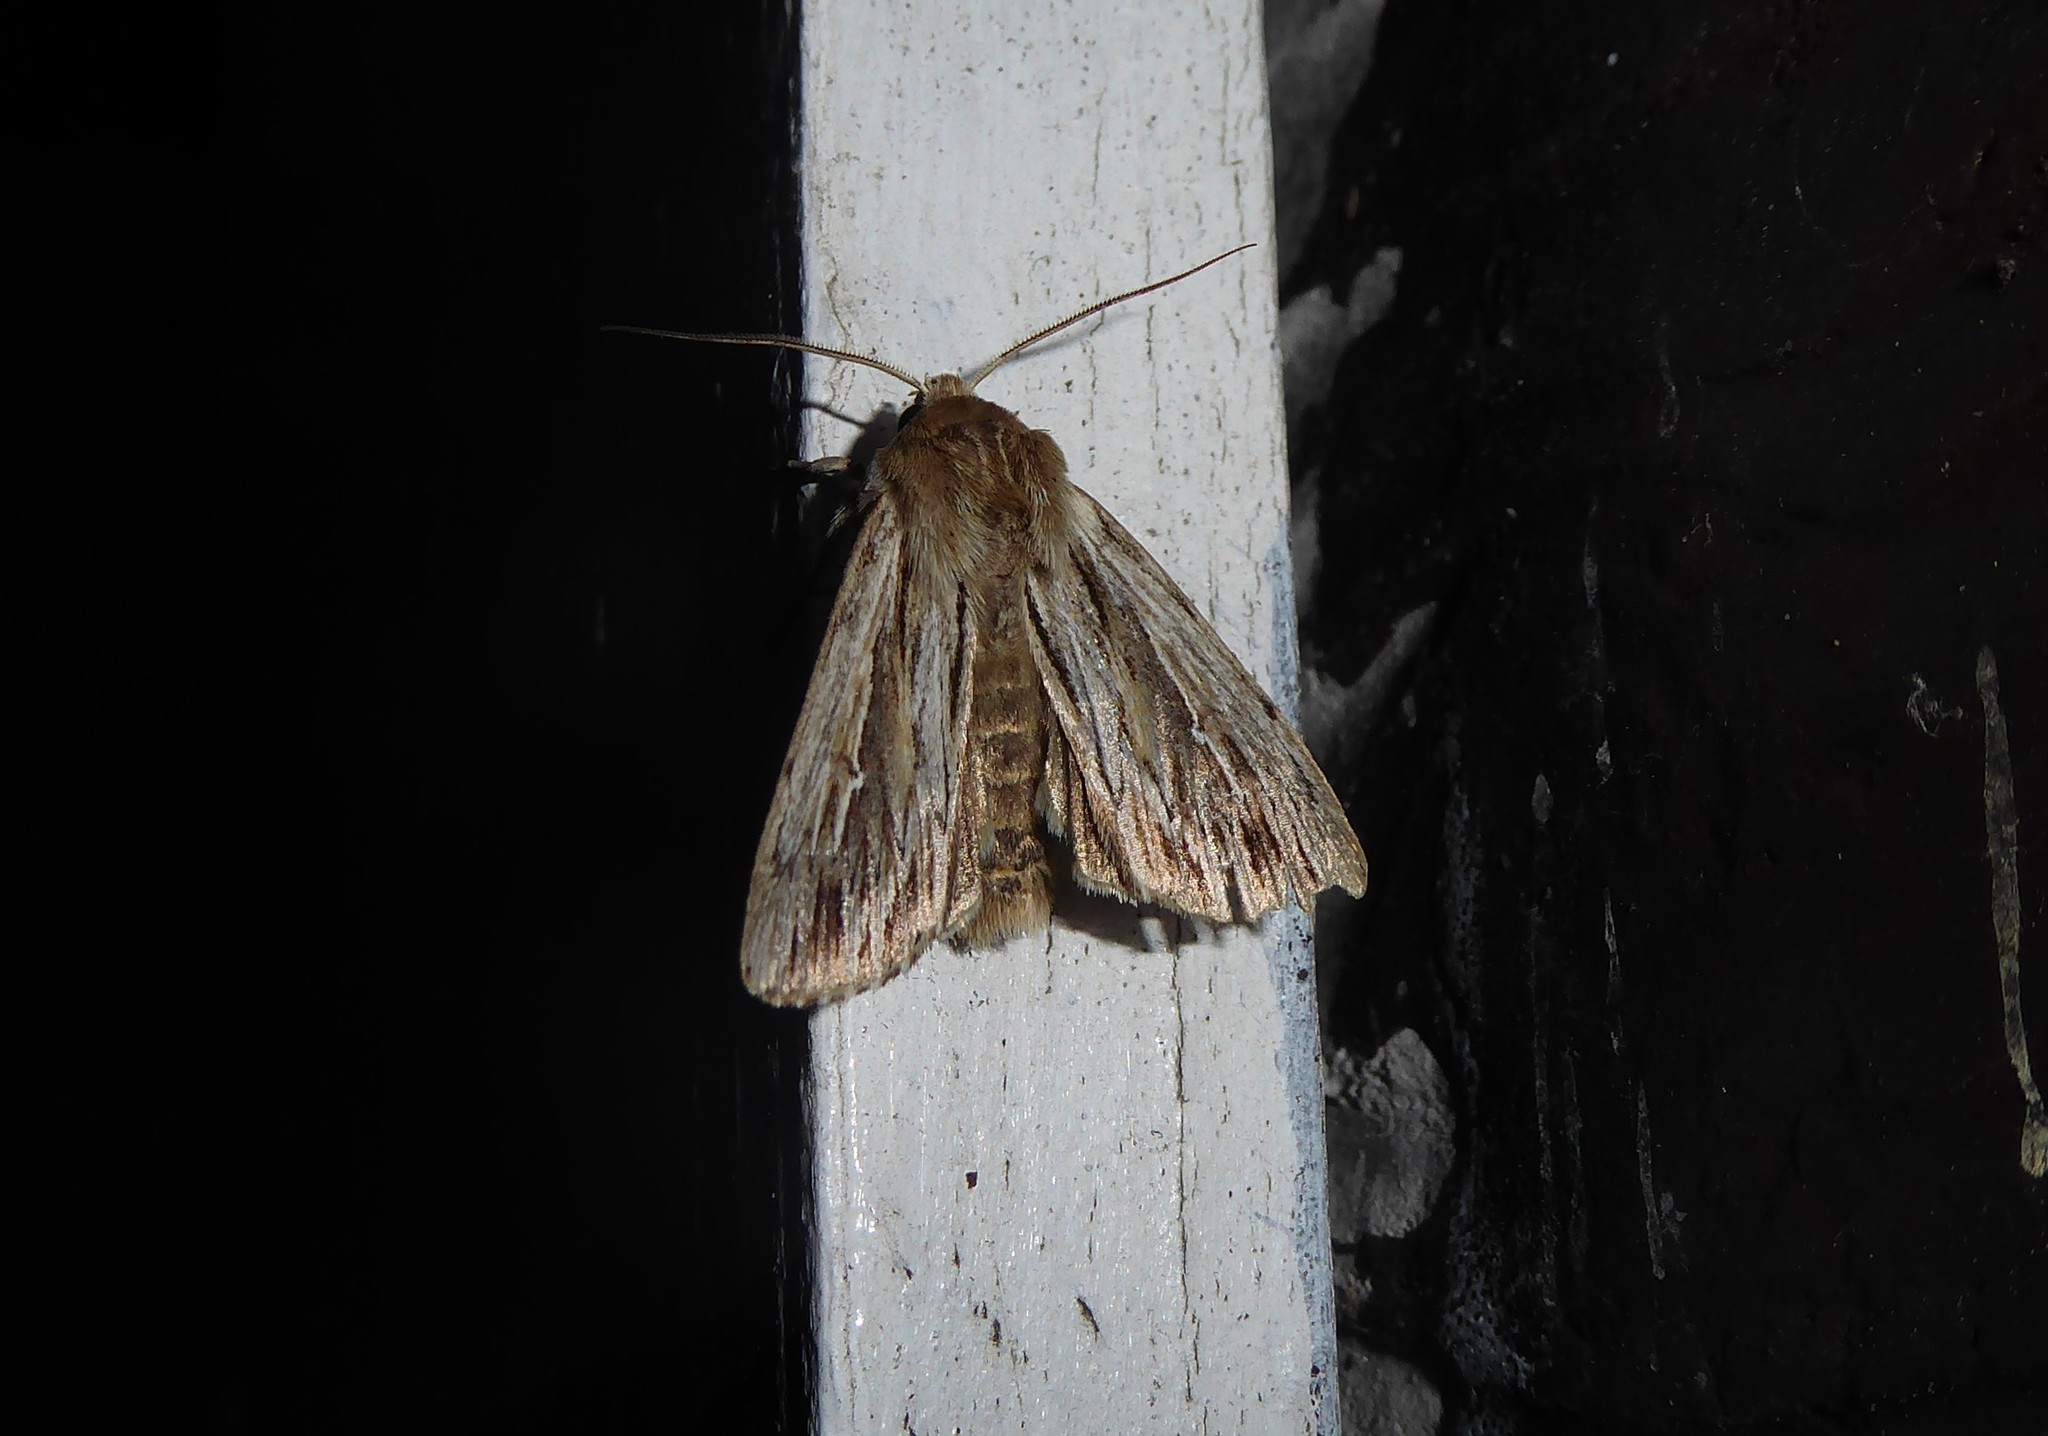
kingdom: Animalia
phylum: Arthropoda
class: Insecta
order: Lepidoptera
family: Noctuidae
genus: Persectania
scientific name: Persectania aversa
